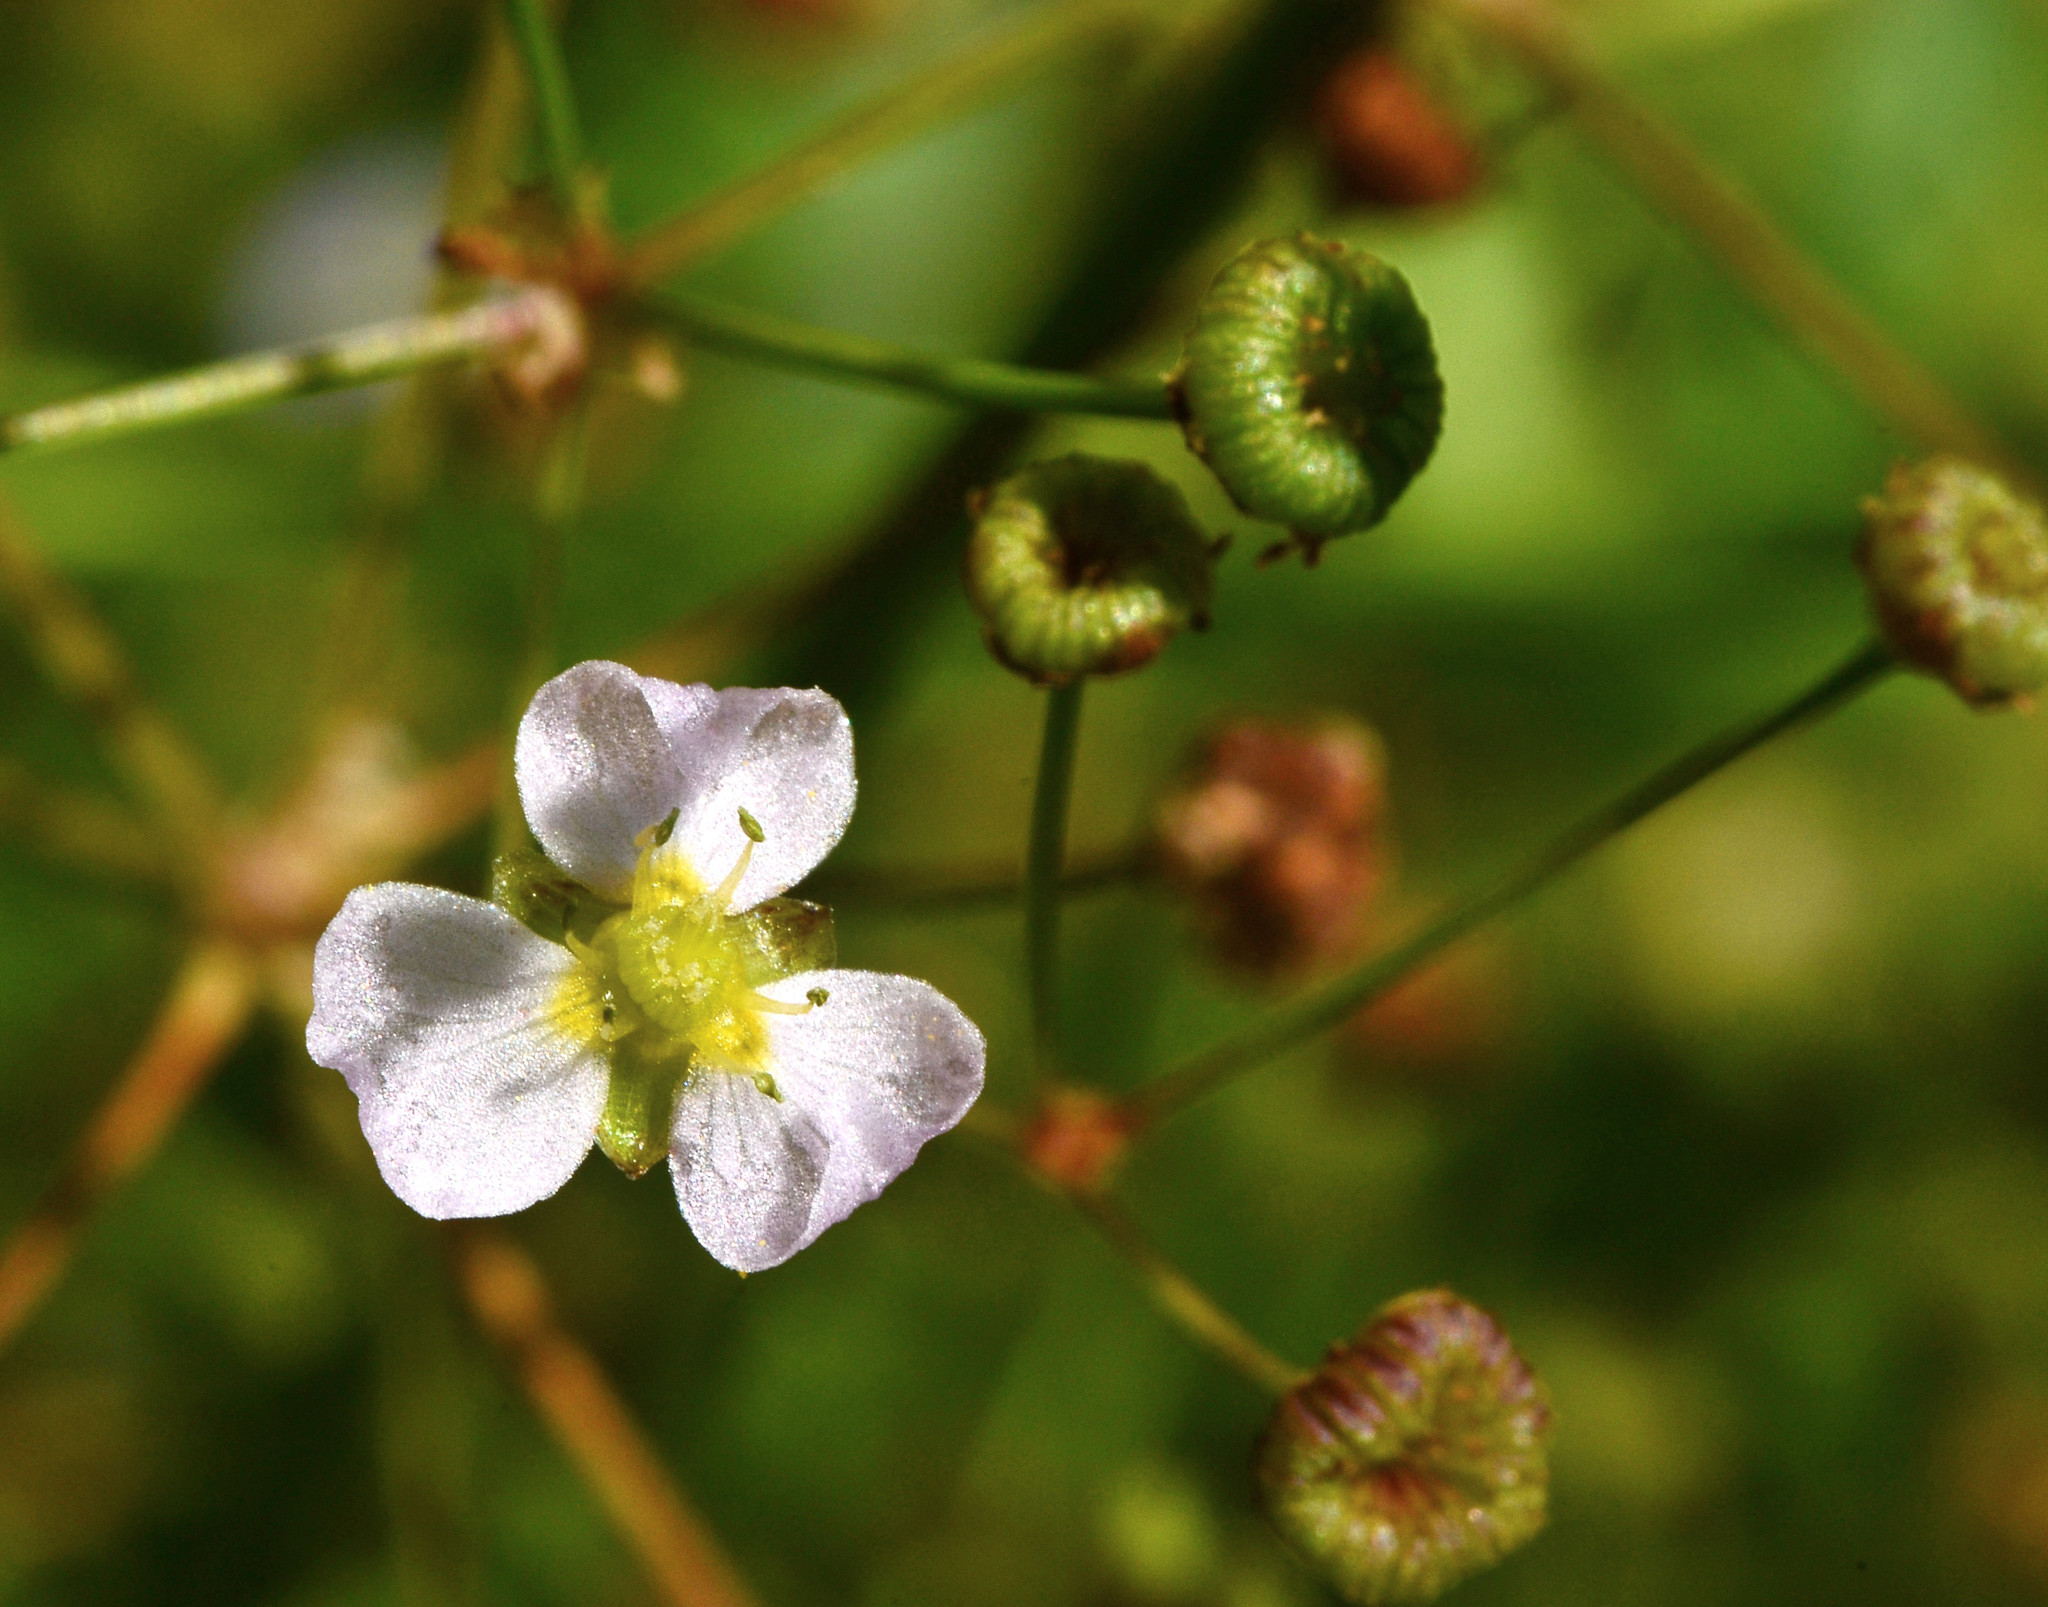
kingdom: Plantae
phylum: Tracheophyta
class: Liliopsida
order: Alismatales
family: Alismataceae
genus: Alisma
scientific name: Alisma lanceolatum
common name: Narrow-leaved water-plantain
